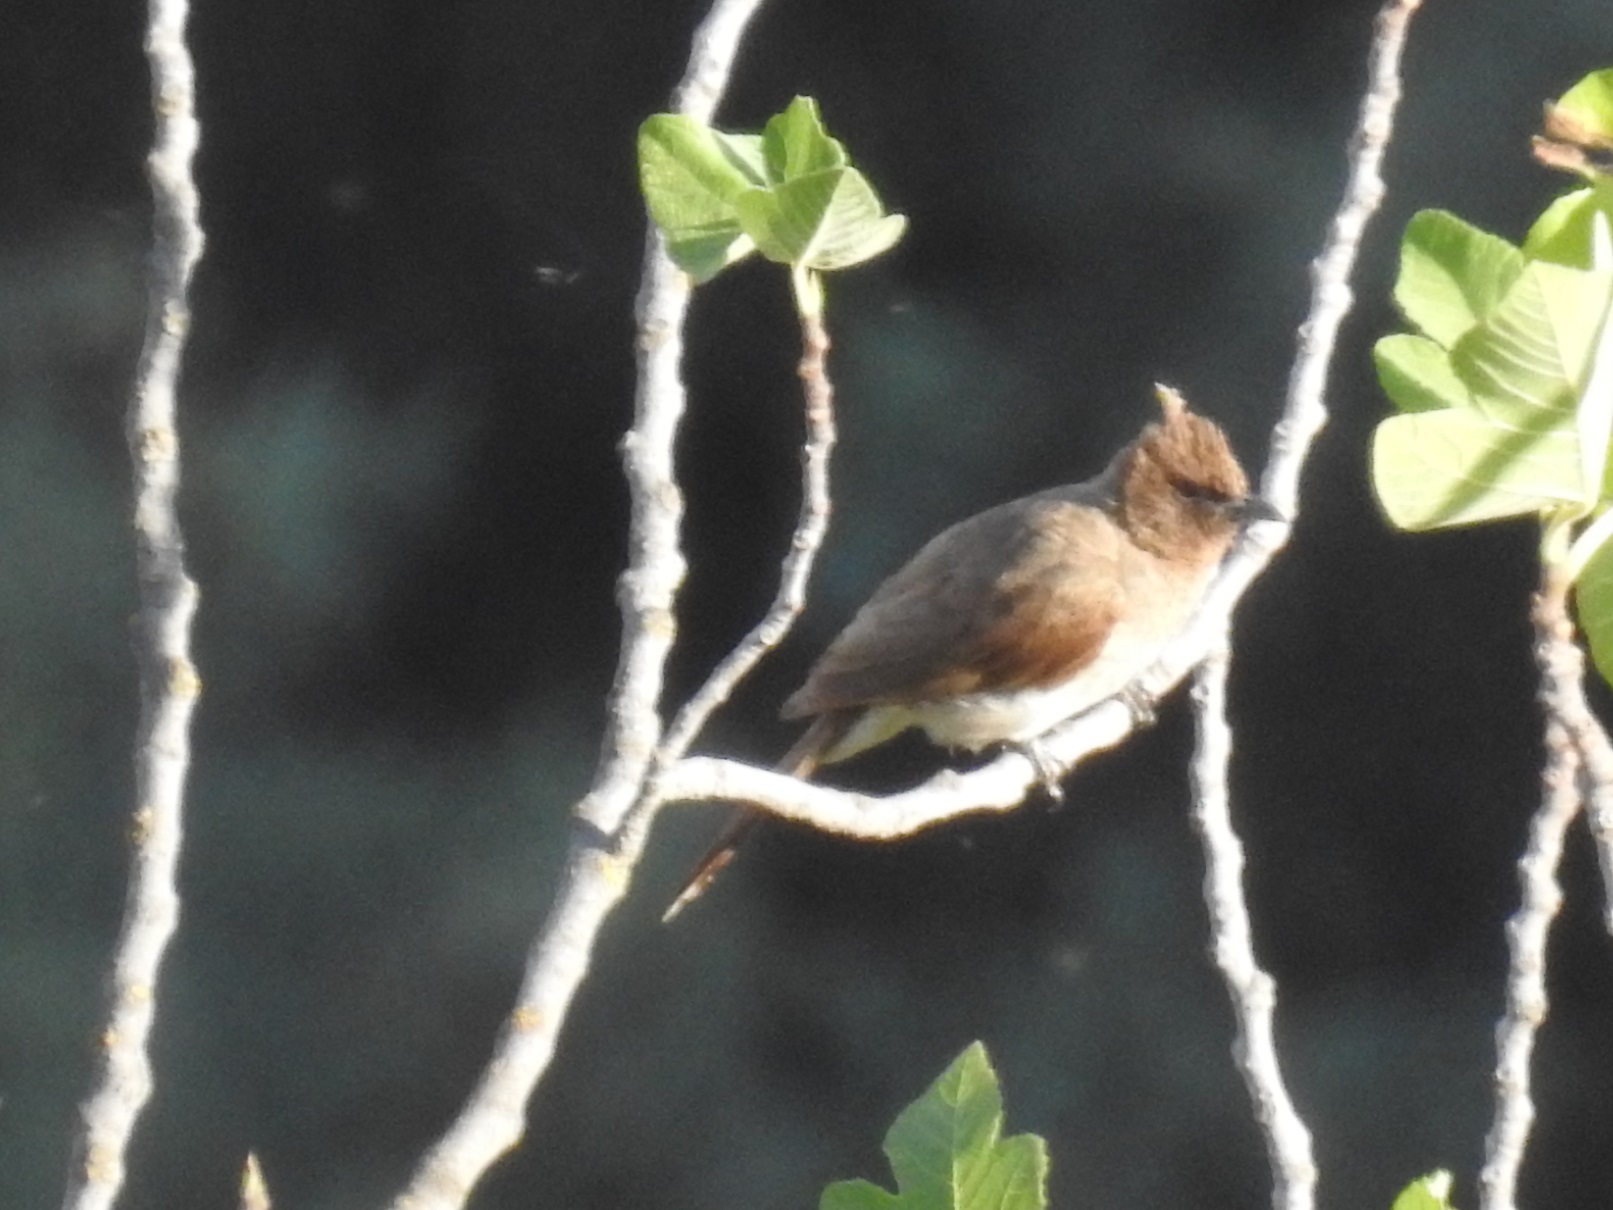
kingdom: Animalia
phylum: Chordata
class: Aves
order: Passeriformes
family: Pycnonotidae
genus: Pycnonotus
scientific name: Pycnonotus barbatus
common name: Common bulbul
